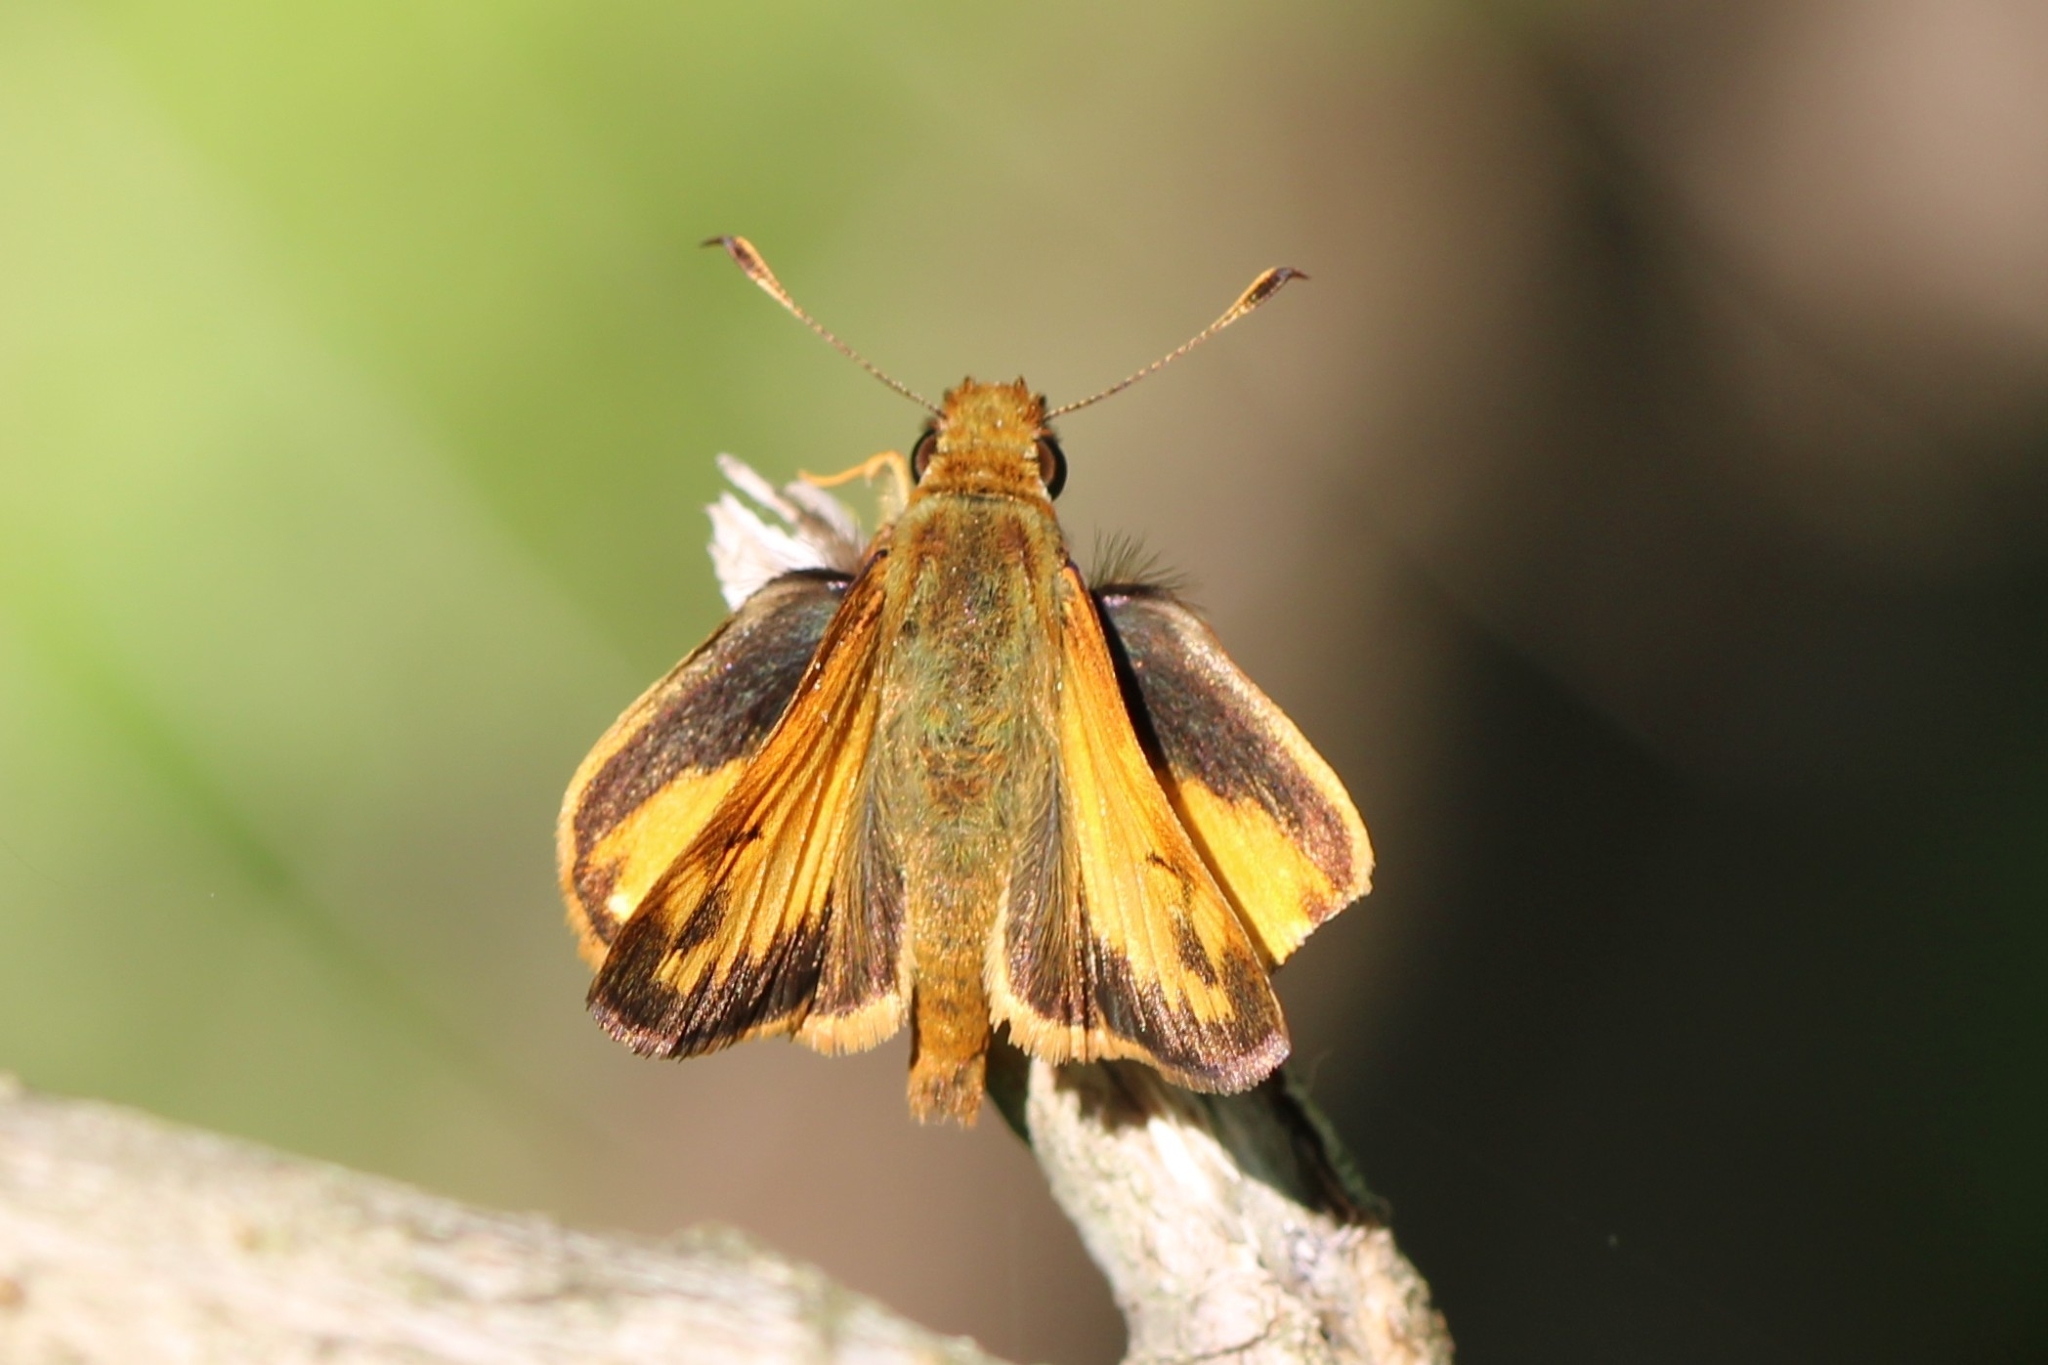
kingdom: Animalia
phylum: Arthropoda
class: Insecta
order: Lepidoptera
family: Hesperiidae
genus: Lon
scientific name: Lon zabulon
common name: Zabulon skipper
